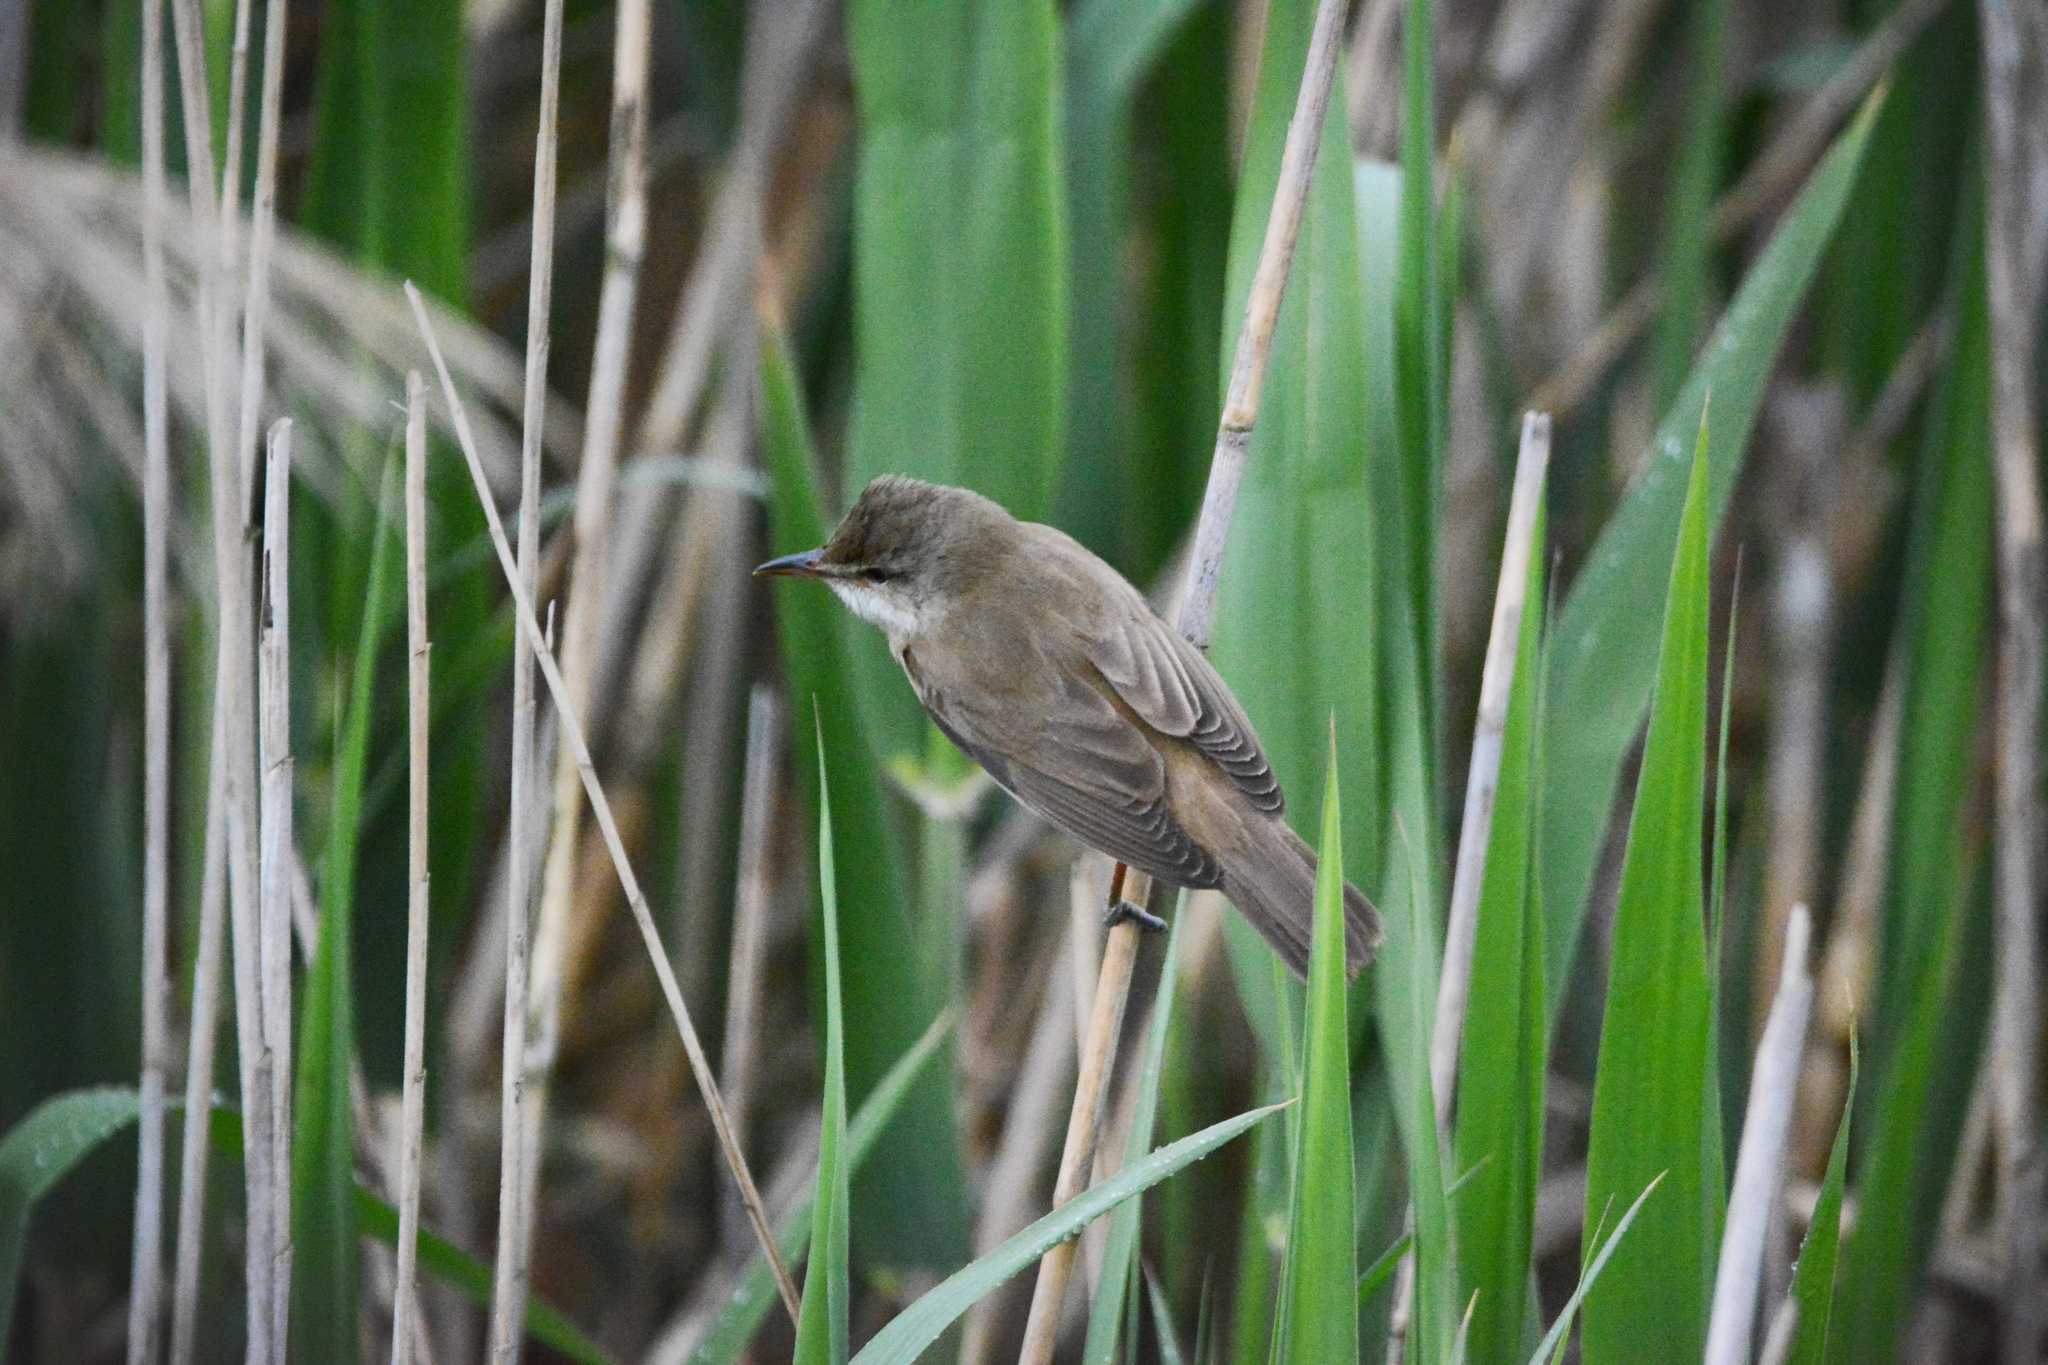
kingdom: Animalia
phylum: Chordata
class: Aves
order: Passeriformes
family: Acrocephalidae
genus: Acrocephalus
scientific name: Acrocephalus arundinaceus
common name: Great reed warbler
